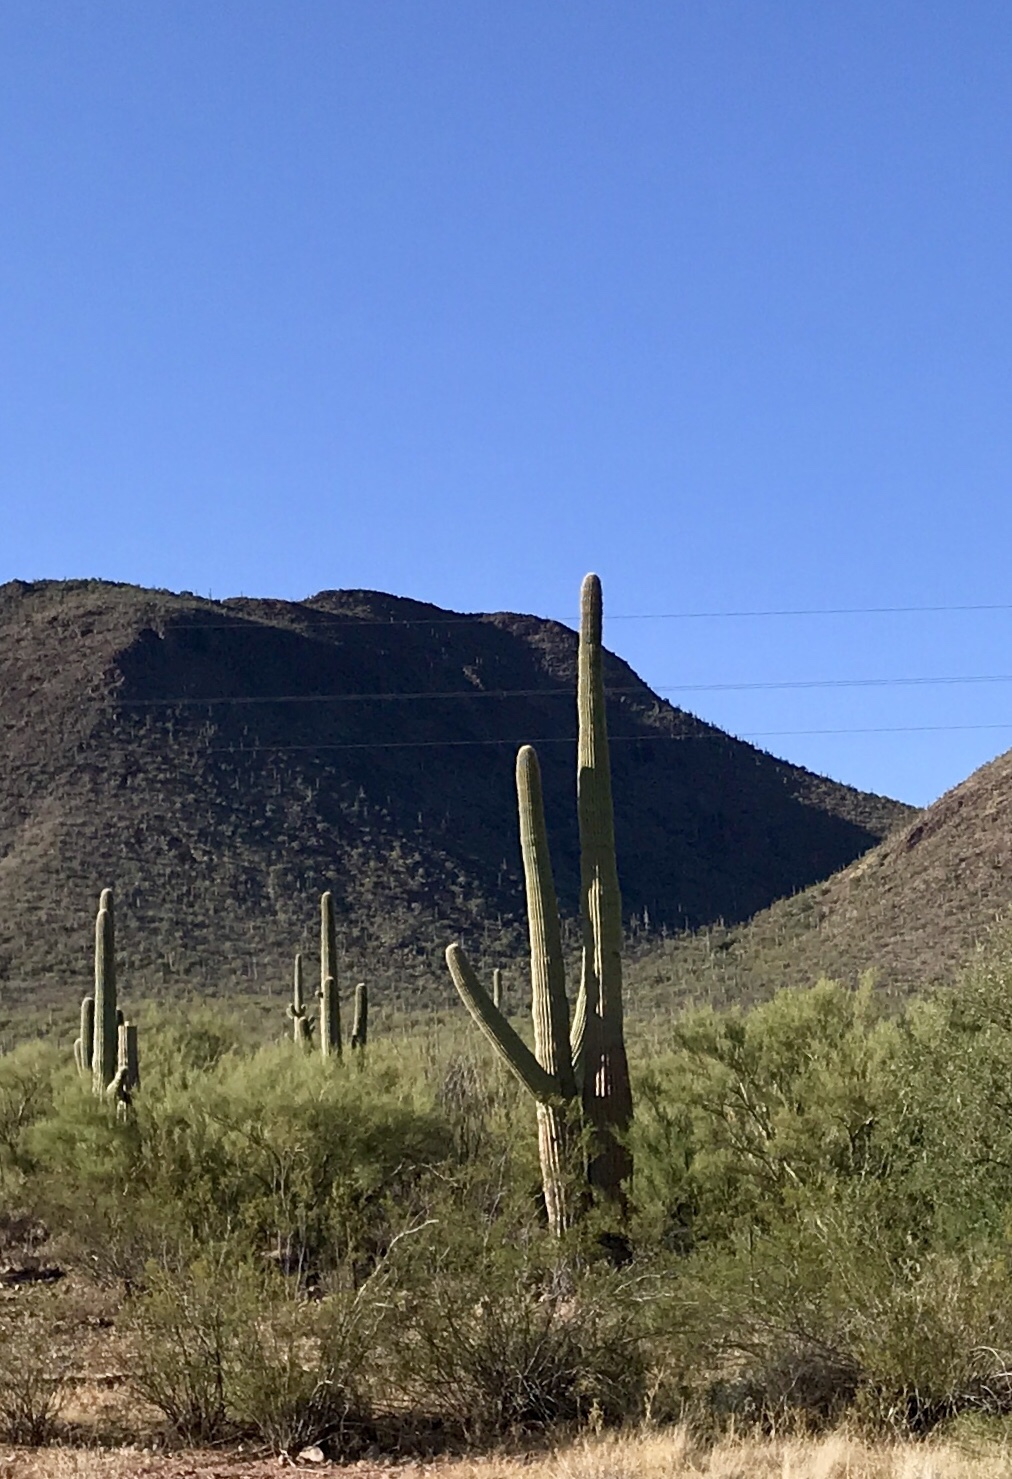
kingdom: Plantae
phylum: Tracheophyta
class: Magnoliopsida
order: Caryophyllales
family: Cactaceae
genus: Carnegiea
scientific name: Carnegiea gigantea
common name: Saguaro
